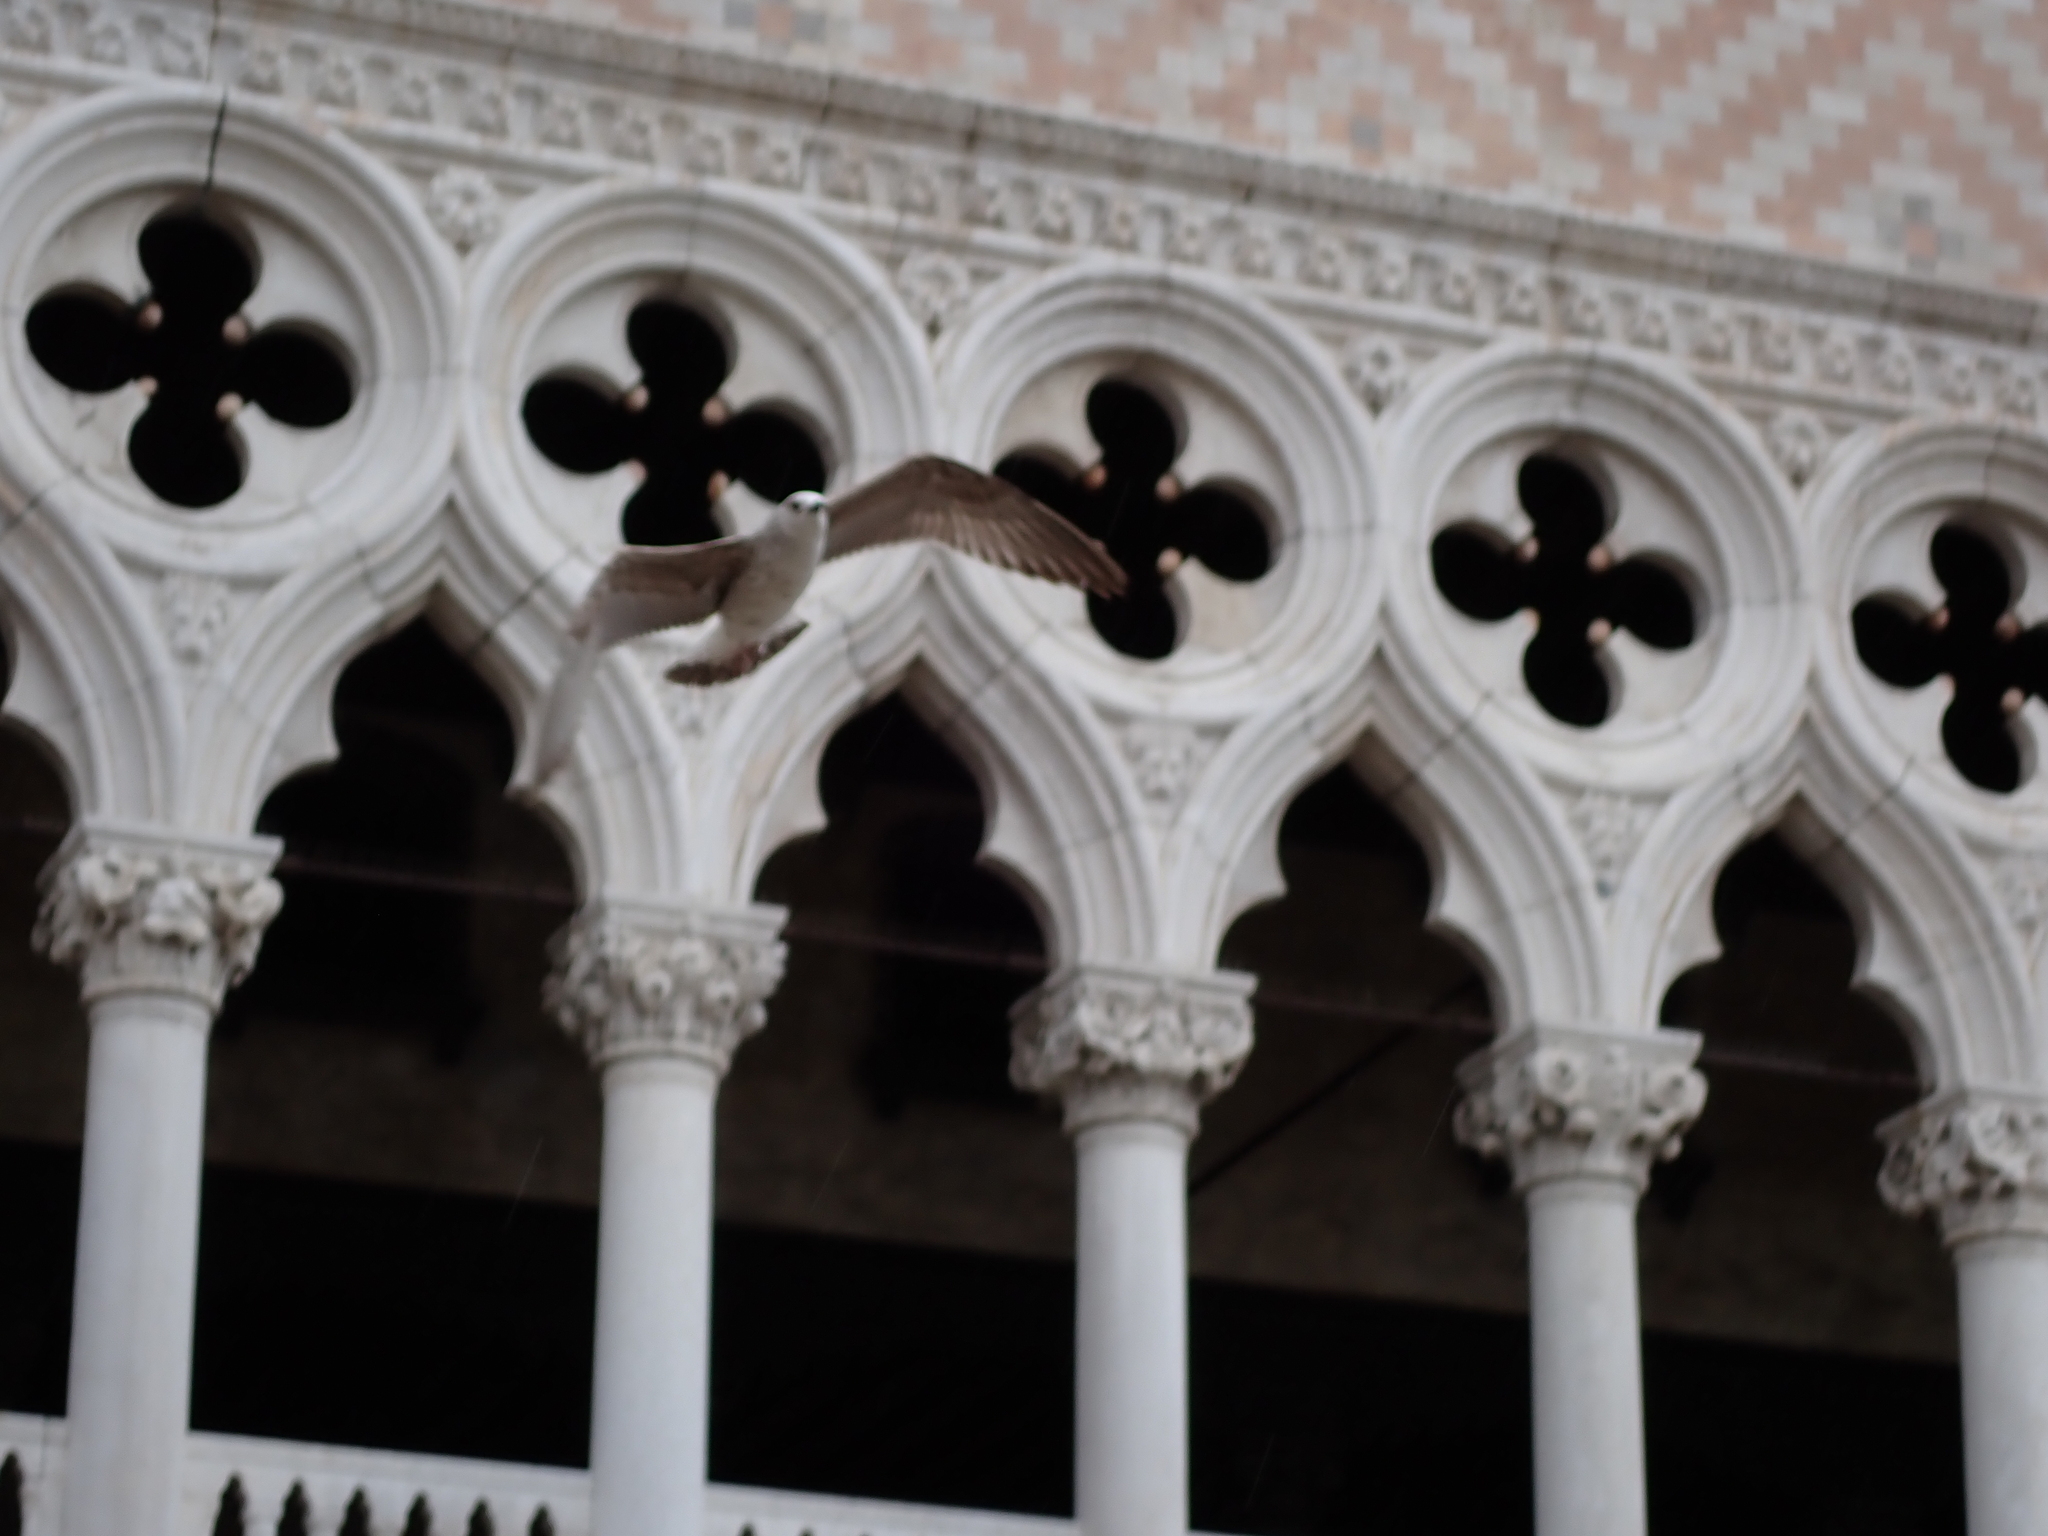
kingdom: Animalia
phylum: Chordata
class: Aves
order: Charadriiformes
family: Laridae
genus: Larus
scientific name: Larus michahellis
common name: Yellow-legged gull
